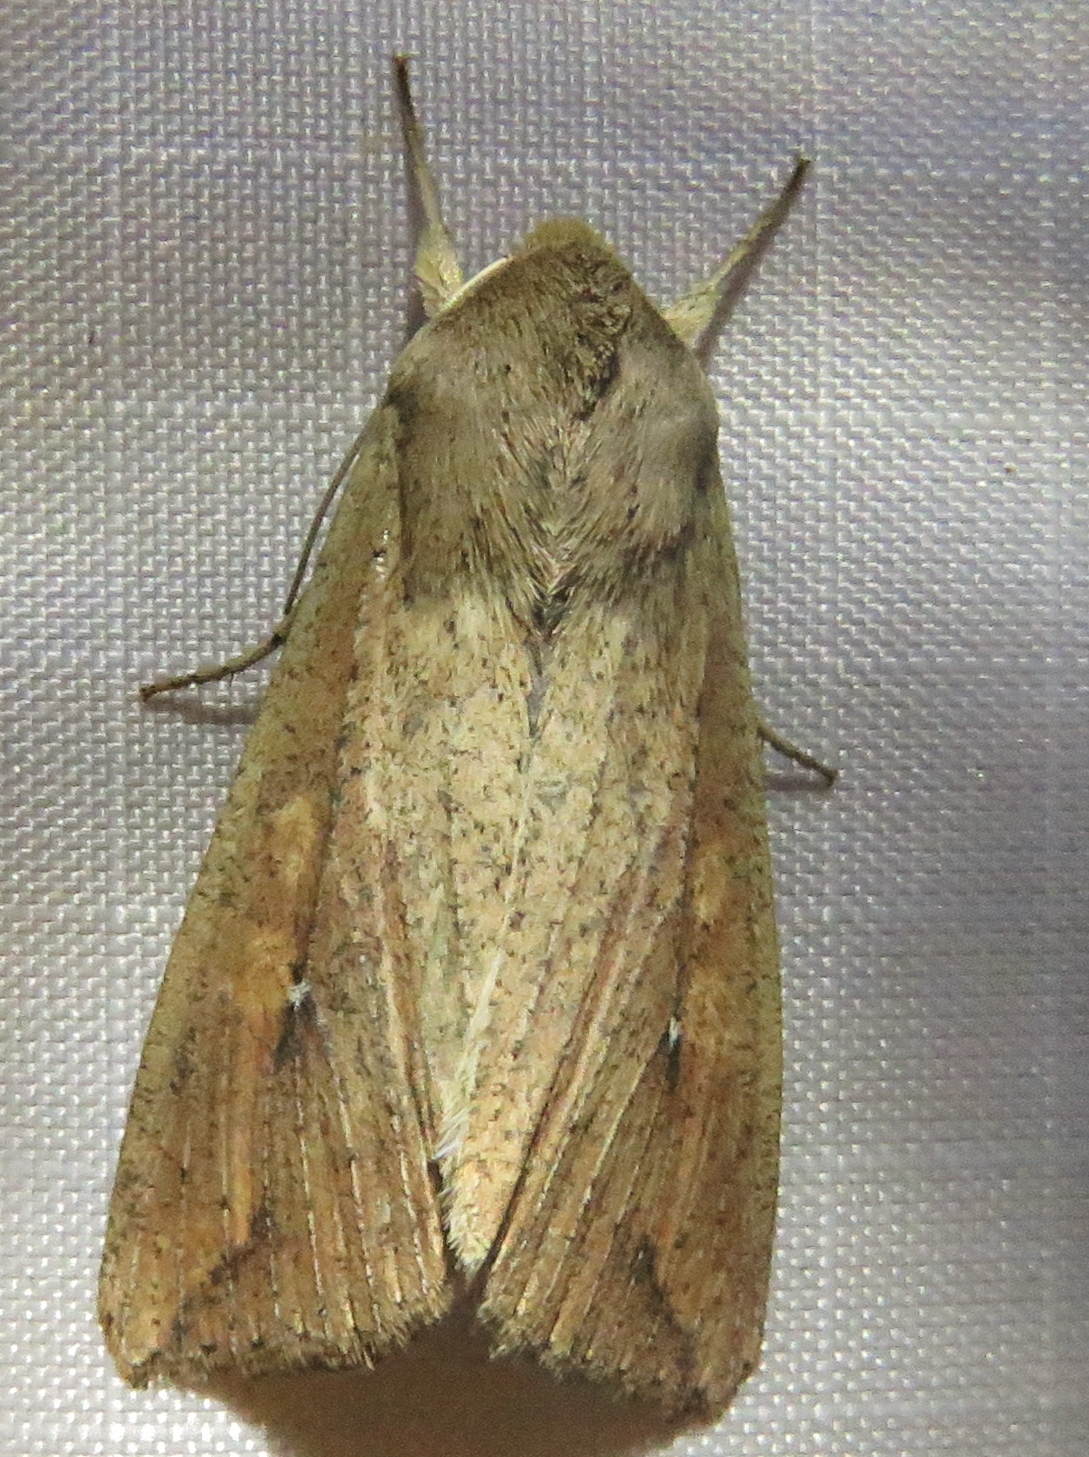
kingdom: Animalia
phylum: Arthropoda
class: Insecta
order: Lepidoptera
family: Noctuidae
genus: Mythimna
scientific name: Mythimna unipuncta
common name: White-speck
